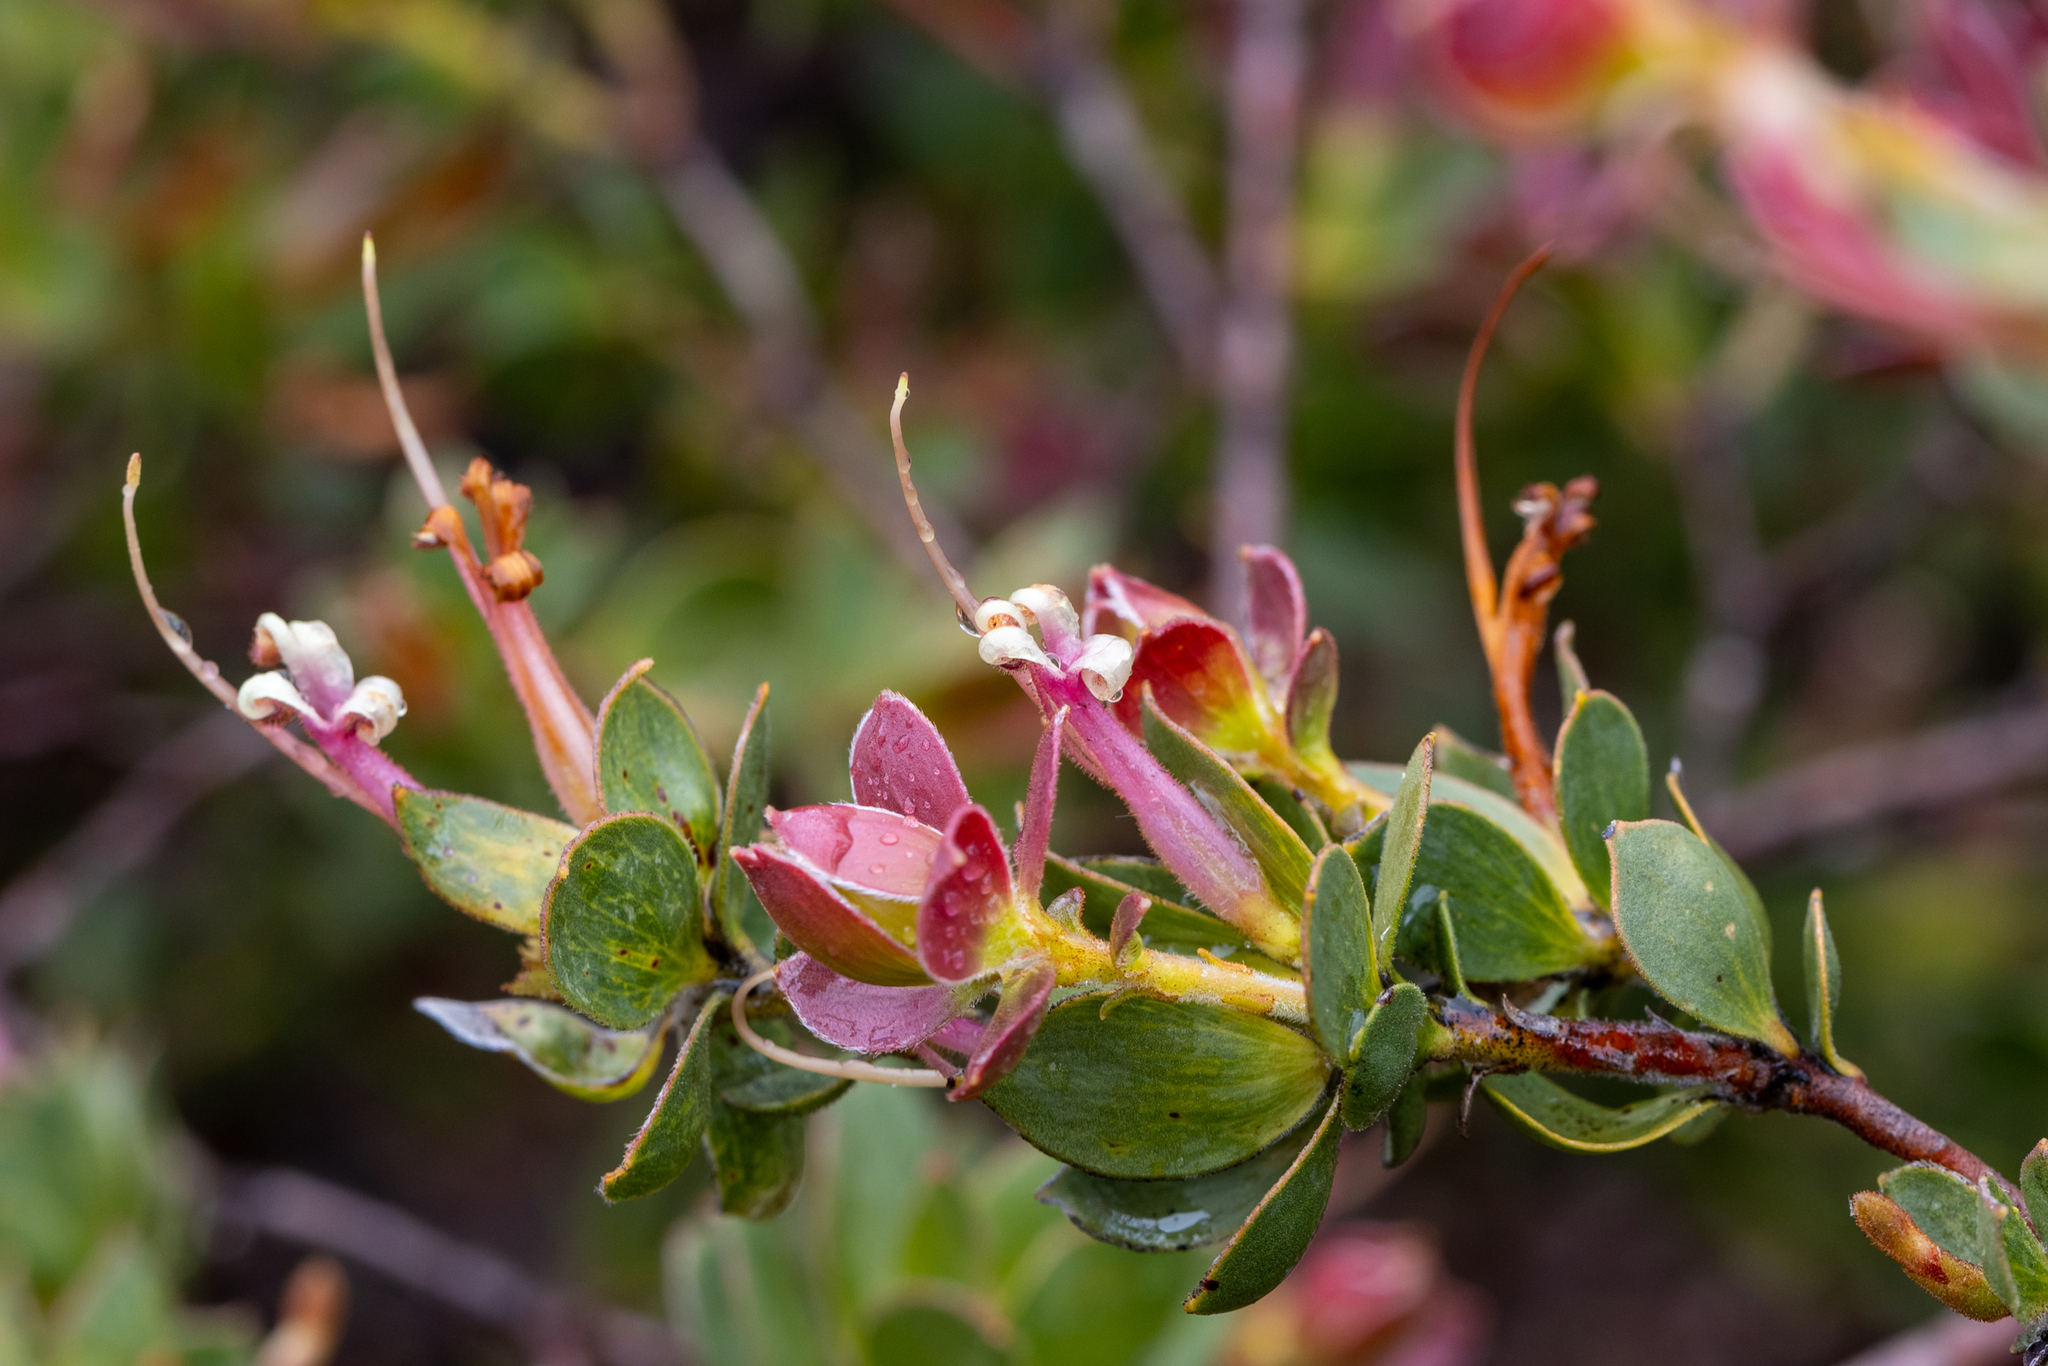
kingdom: Plantae
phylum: Tracheophyta
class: Magnoliopsida
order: Proteales
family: Proteaceae
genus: Adenanthos
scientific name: Adenanthos venosus
